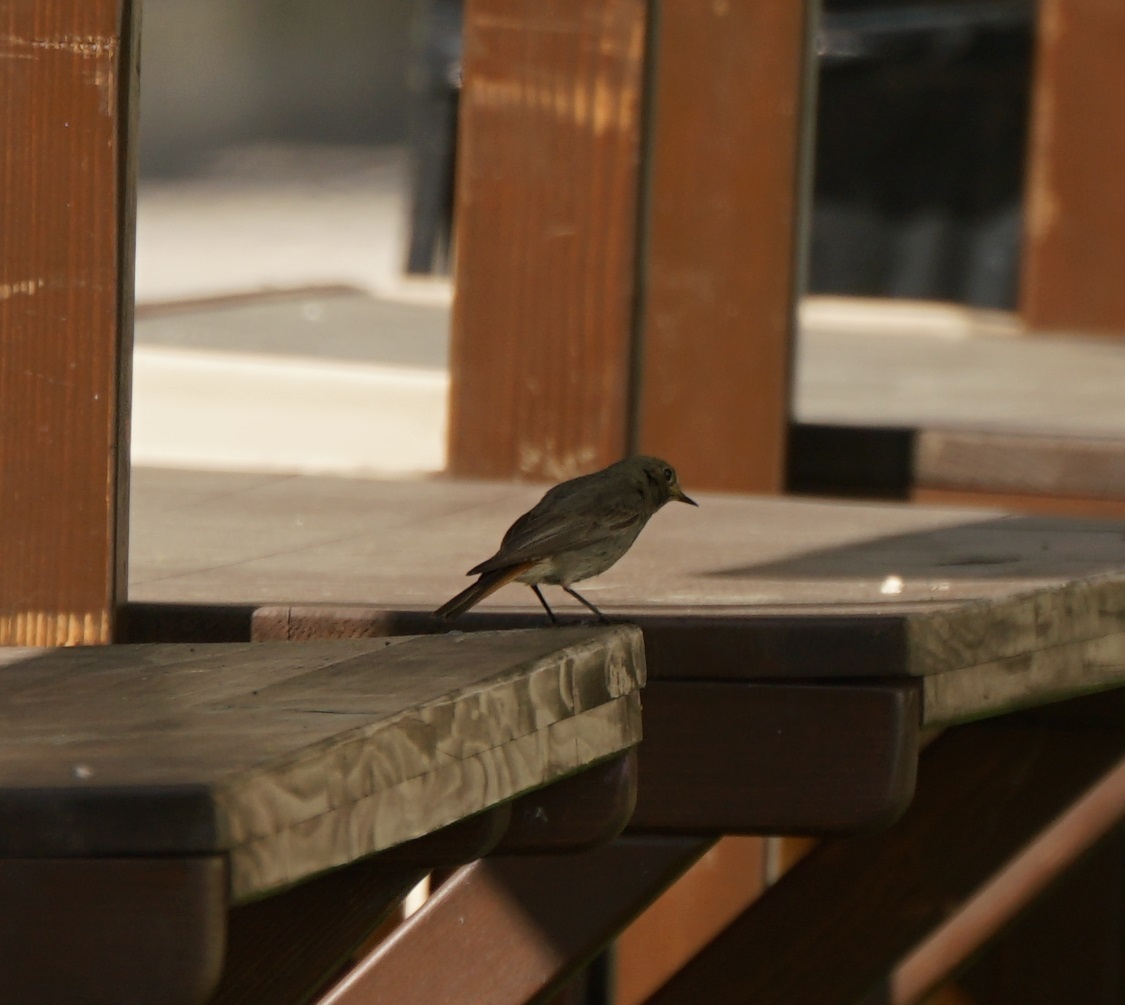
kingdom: Animalia
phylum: Chordata
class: Aves
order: Passeriformes
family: Muscicapidae
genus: Phoenicurus
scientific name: Phoenicurus ochruros
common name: Black redstart
